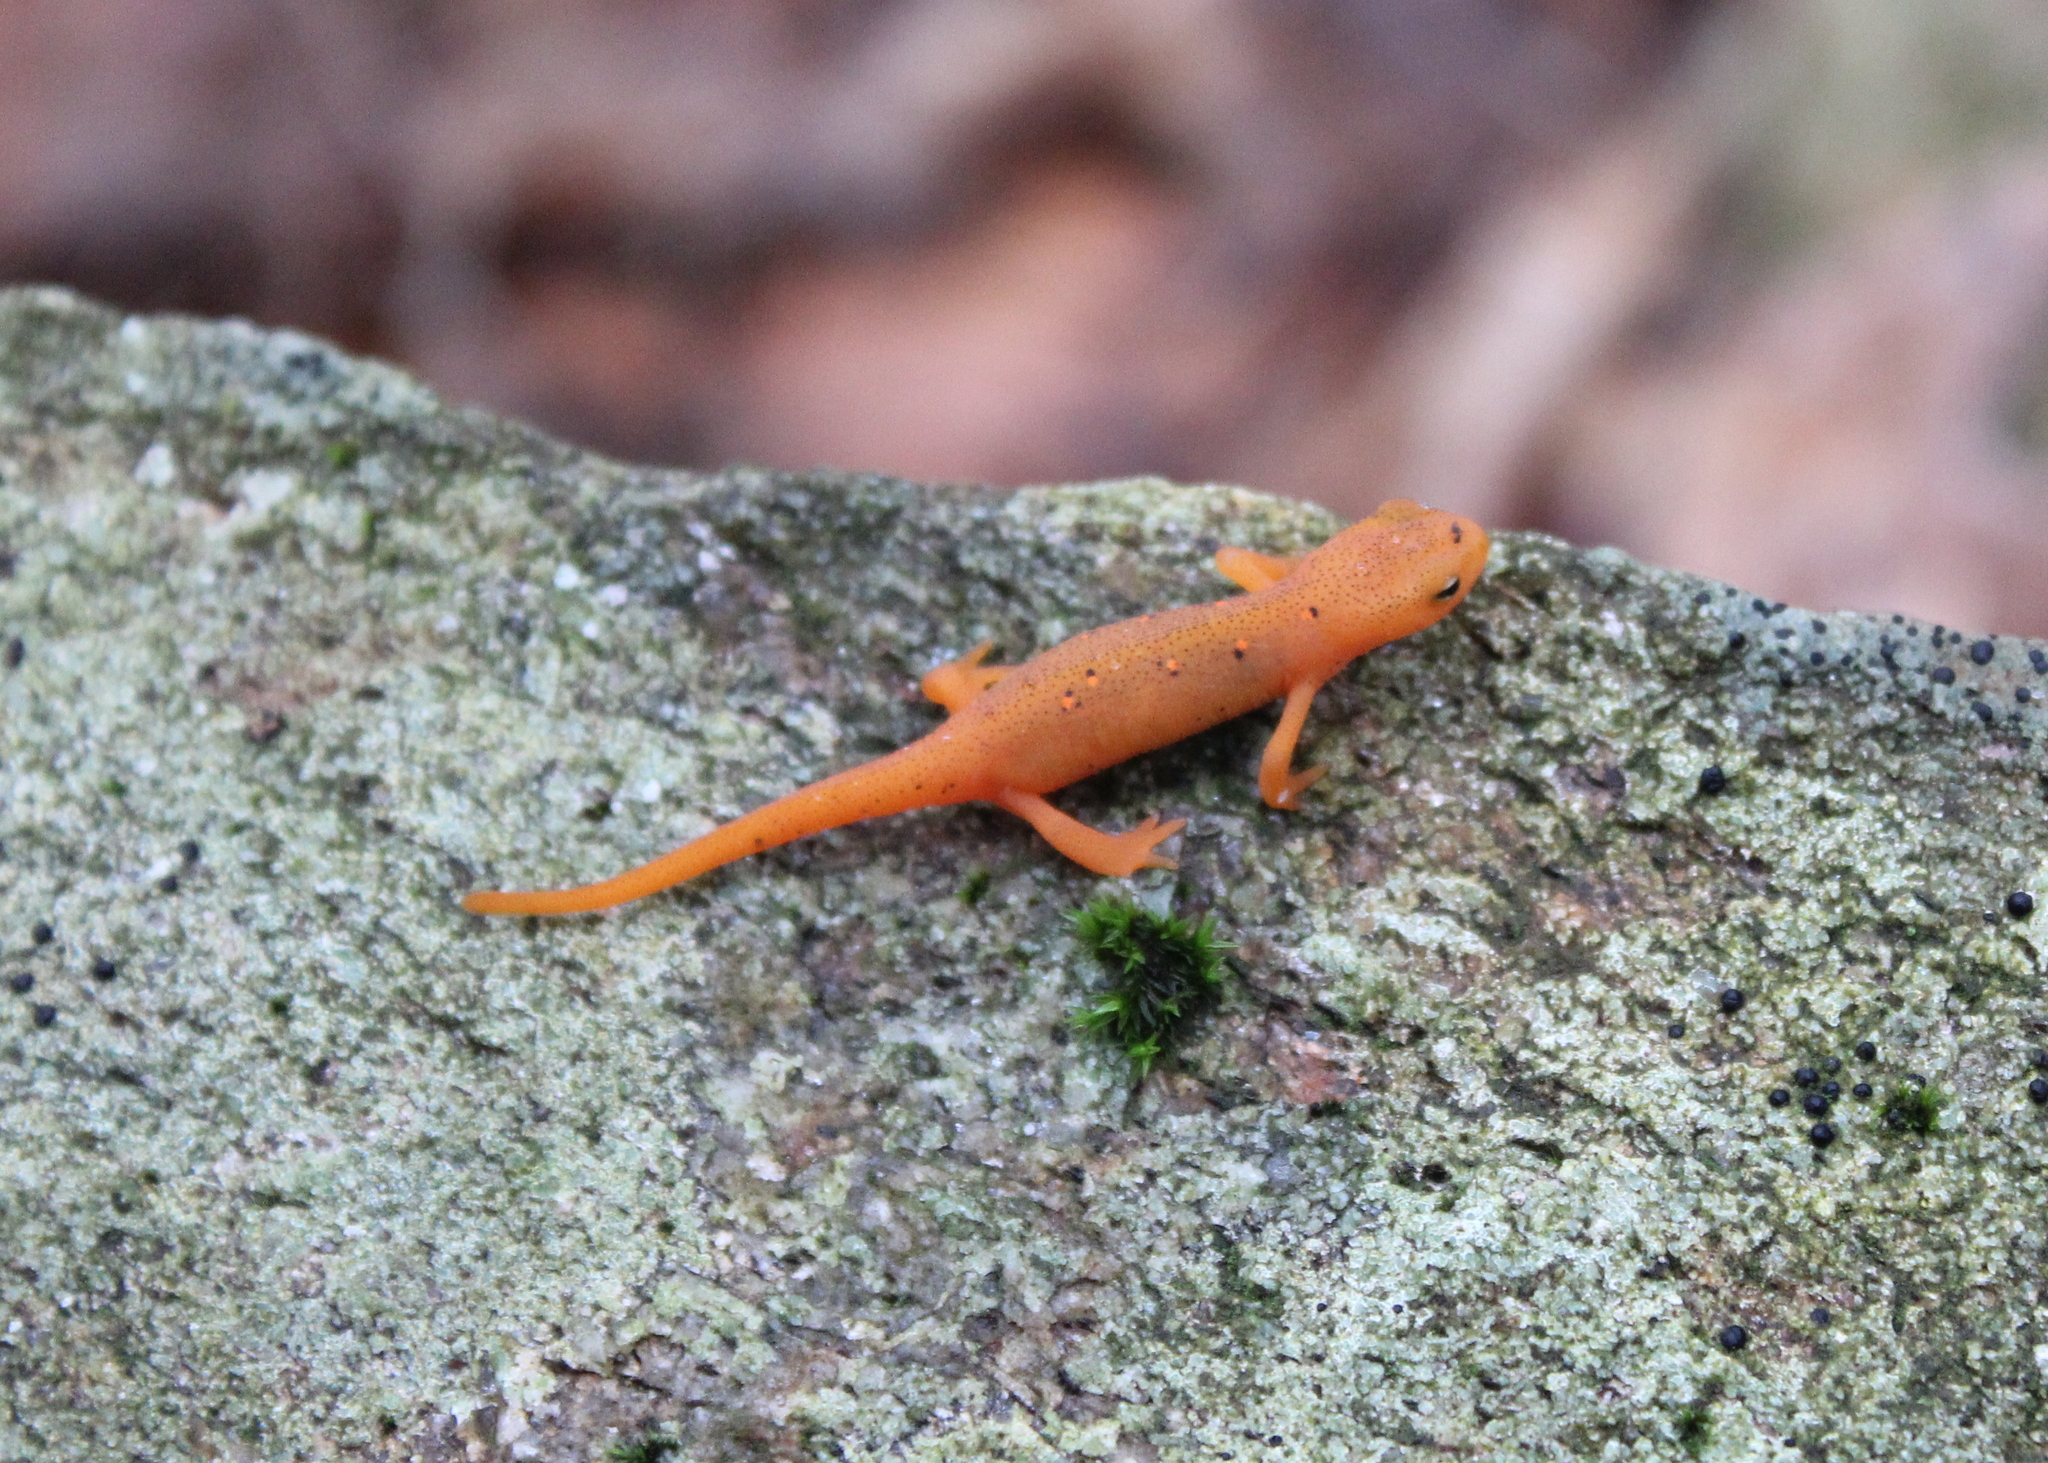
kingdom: Animalia
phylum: Chordata
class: Amphibia
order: Caudata
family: Salamandridae
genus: Notophthalmus
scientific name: Notophthalmus viridescens
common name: Eastern newt
